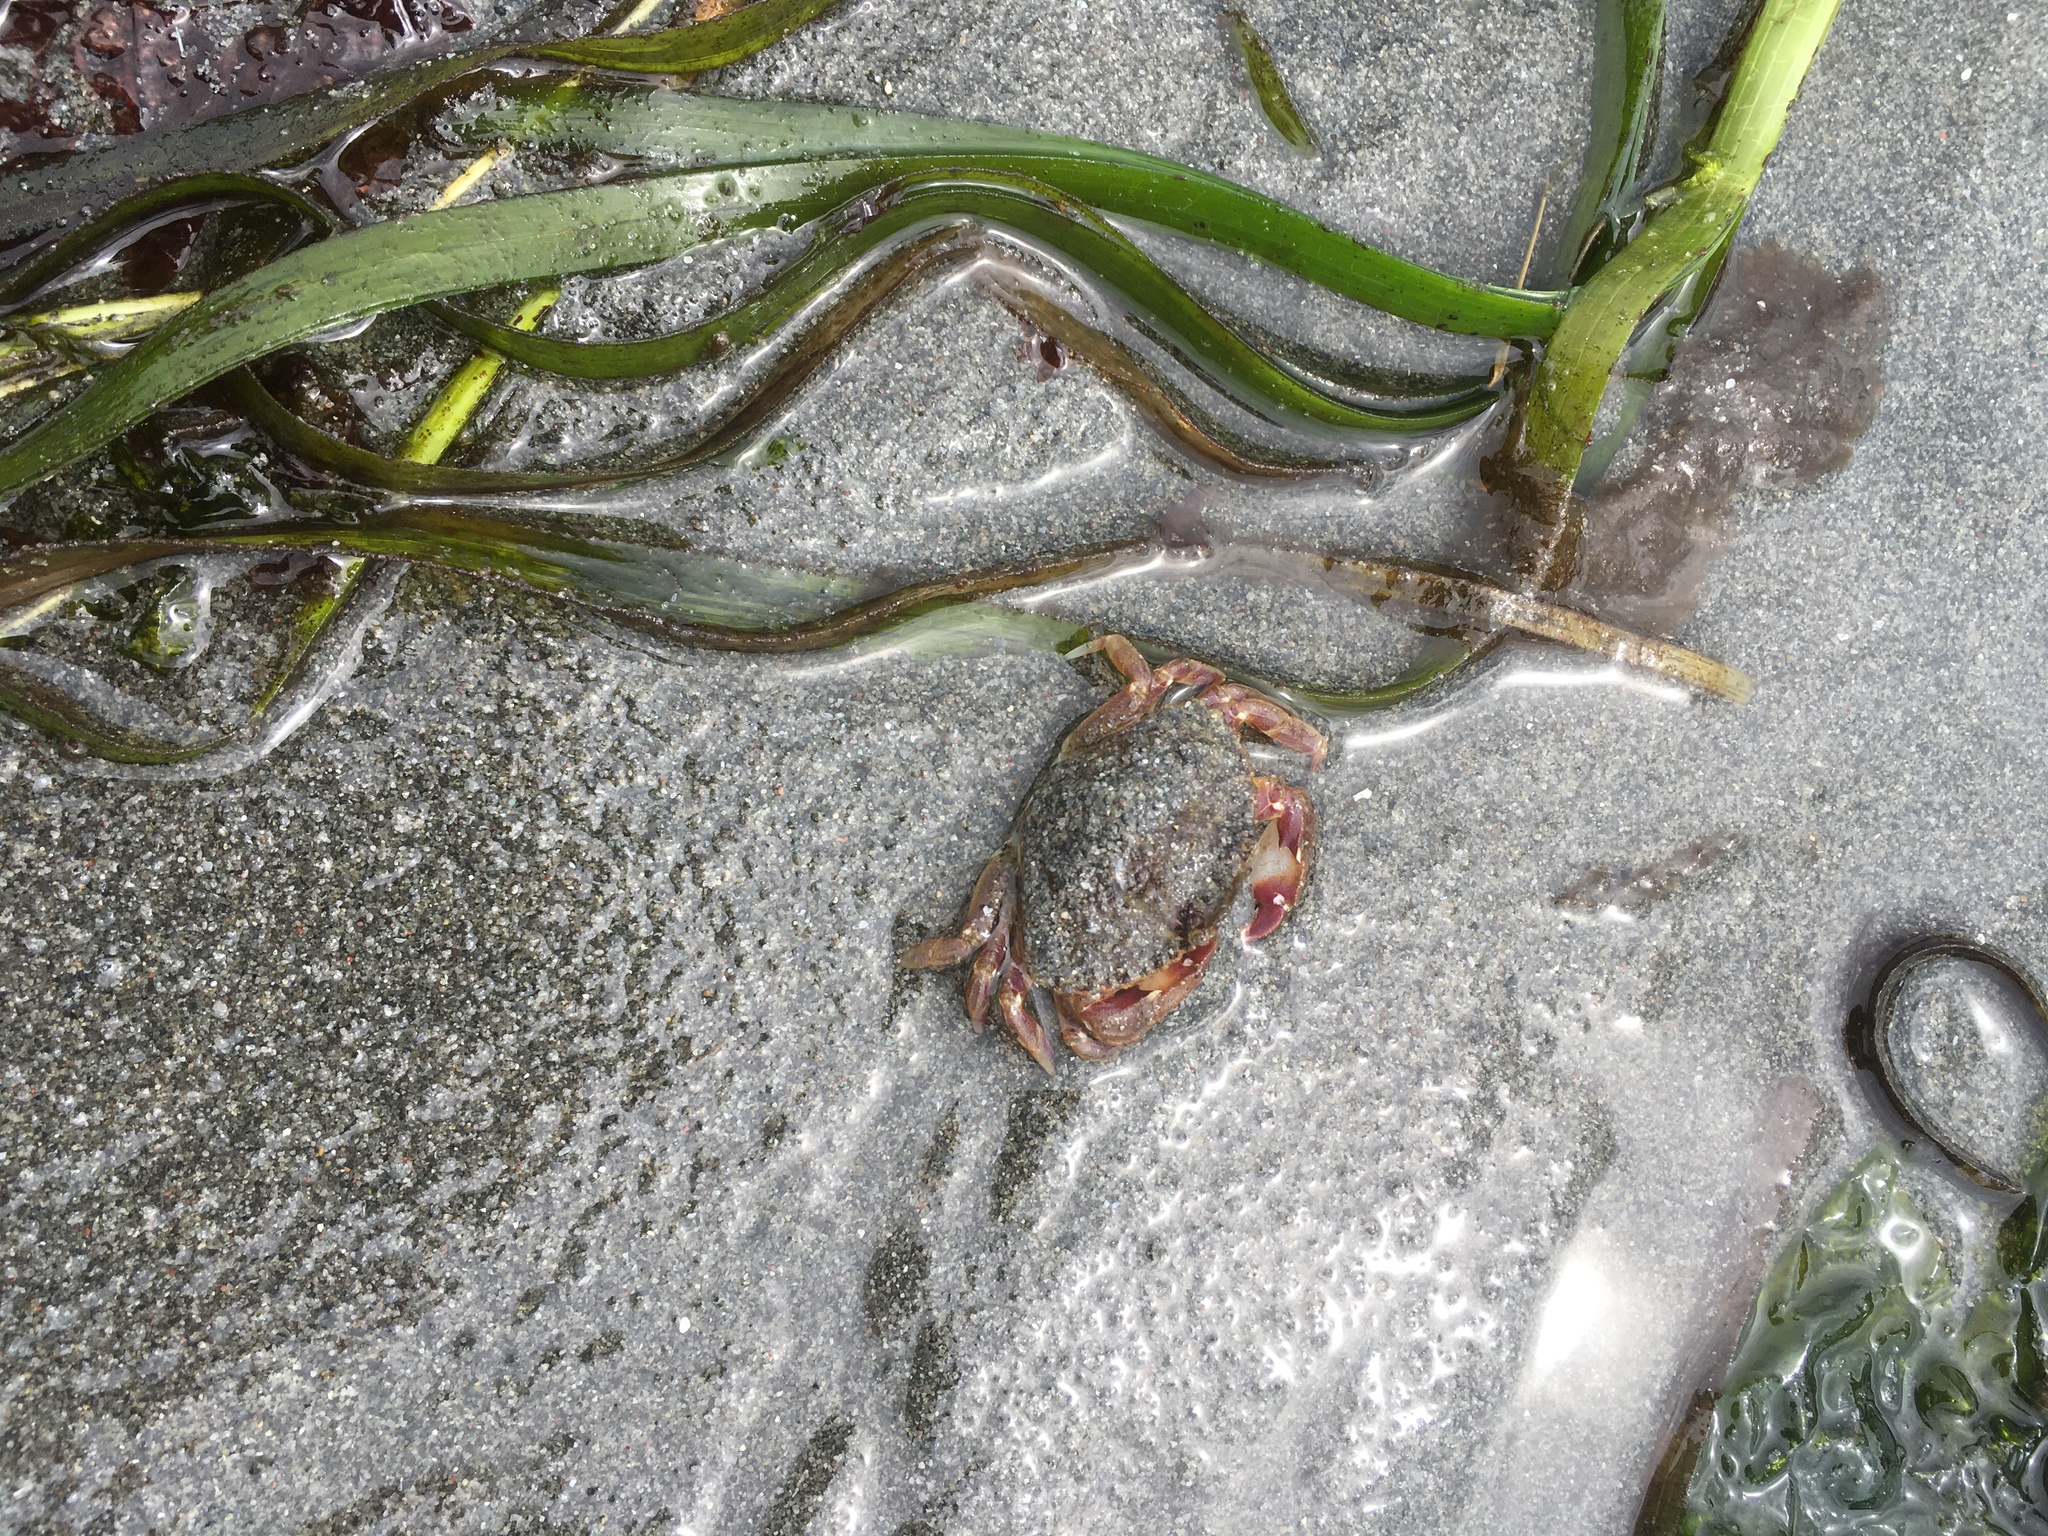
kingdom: Animalia
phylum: Arthropoda
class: Malacostraca
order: Decapoda
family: Cancridae
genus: Metacarcinus
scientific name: Metacarcinus gracilis
